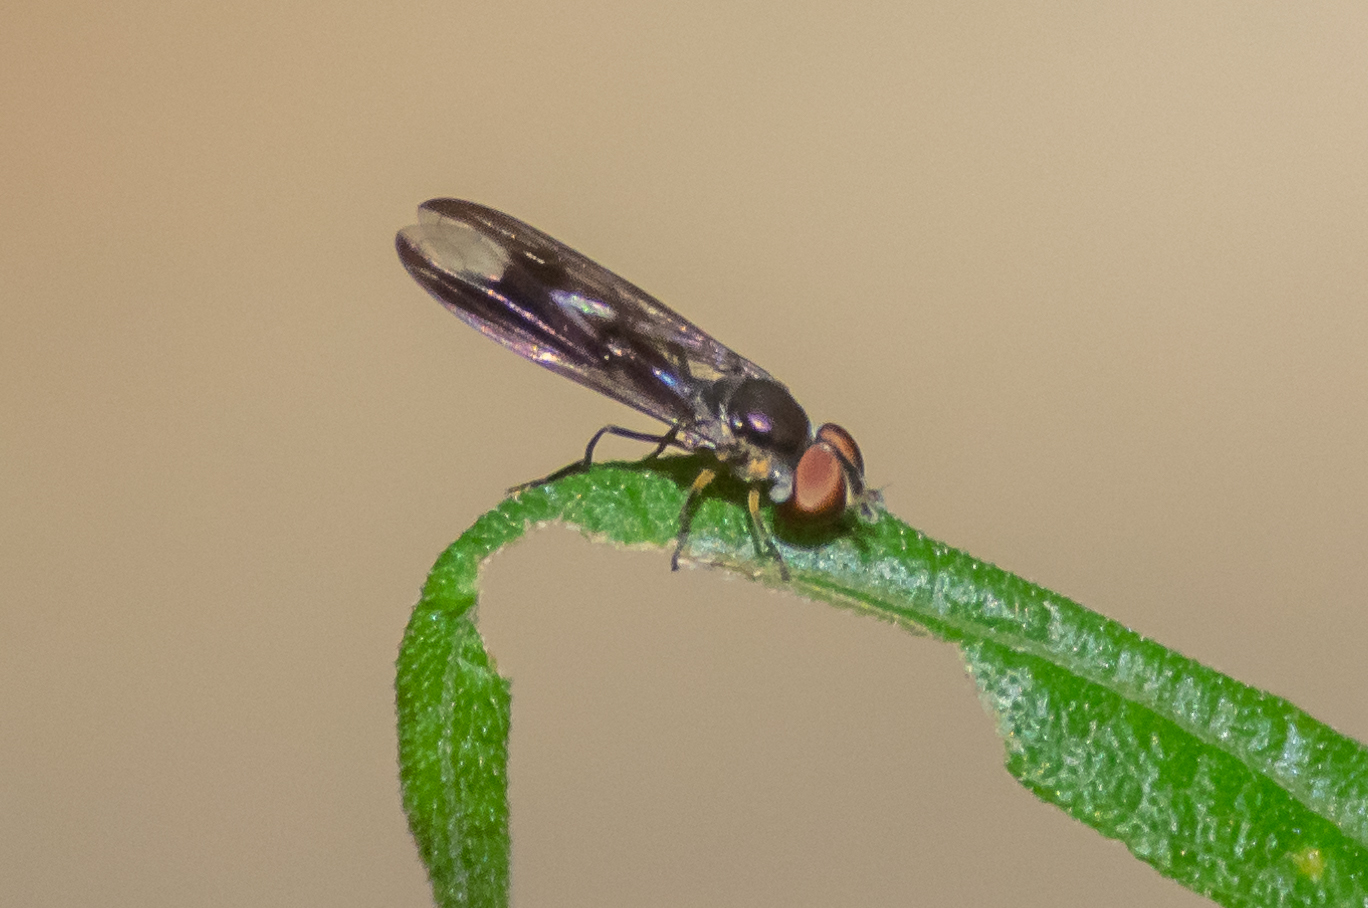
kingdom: Animalia
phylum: Arthropoda
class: Insecta
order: Diptera
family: Syrphidae
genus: Ocyptamus
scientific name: Ocyptamus fuscipennis
